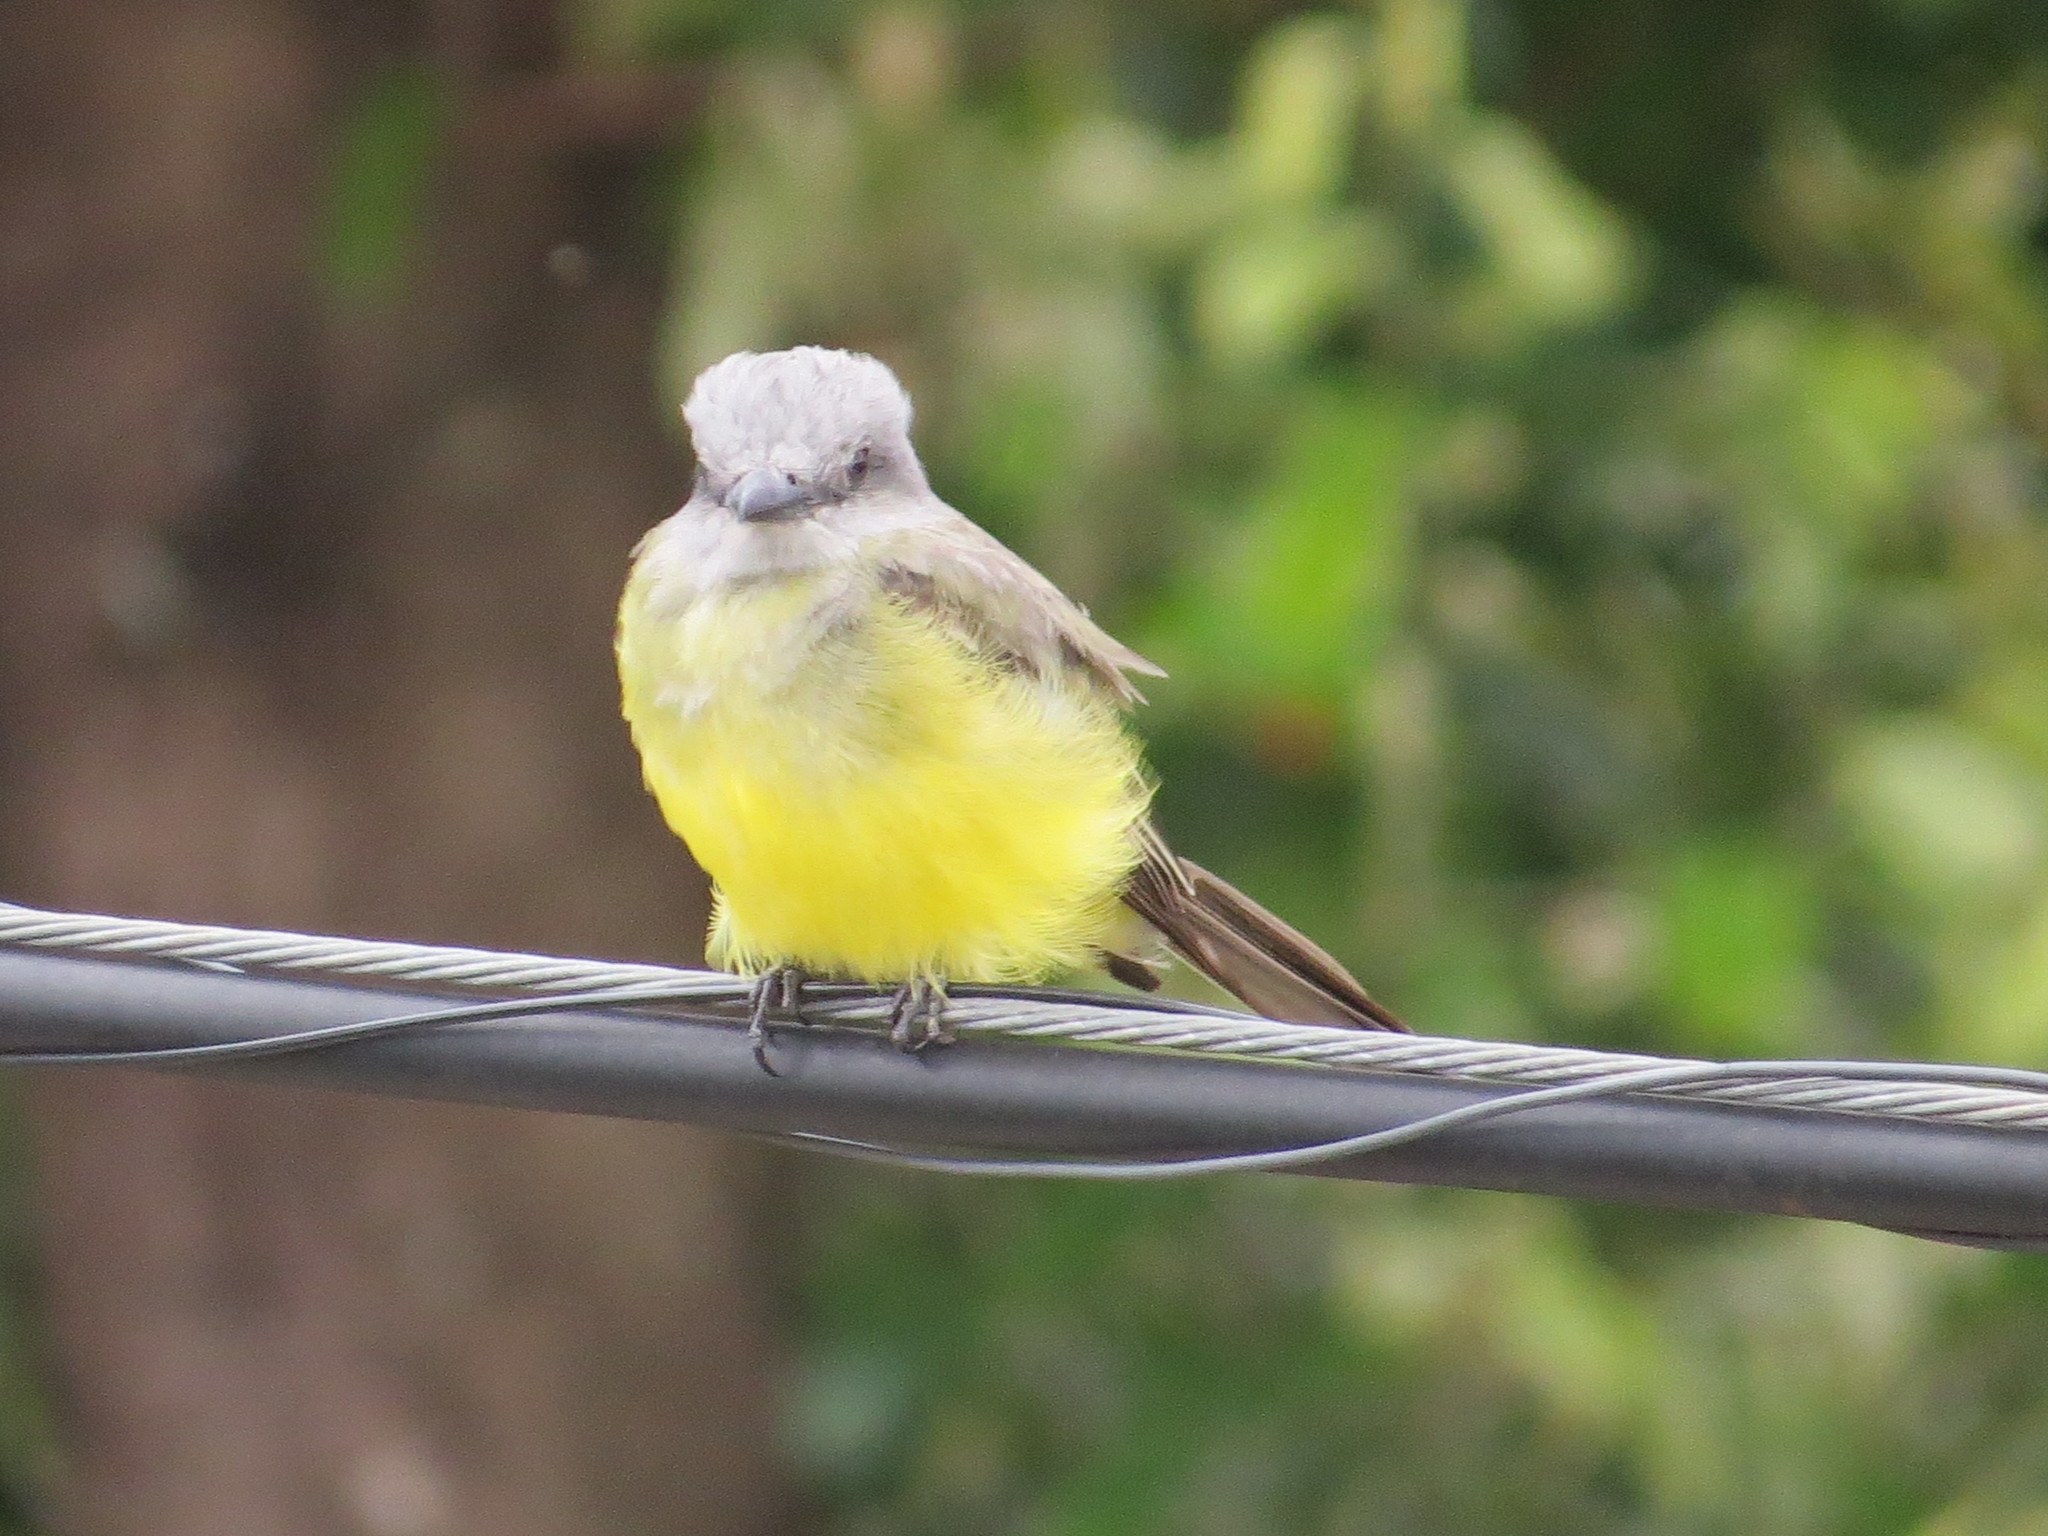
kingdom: Animalia
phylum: Chordata
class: Aves
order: Passeriformes
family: Tyrannidae
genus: Tyrannus
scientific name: Tyrannus melancholicus
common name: Tropical kingbird
